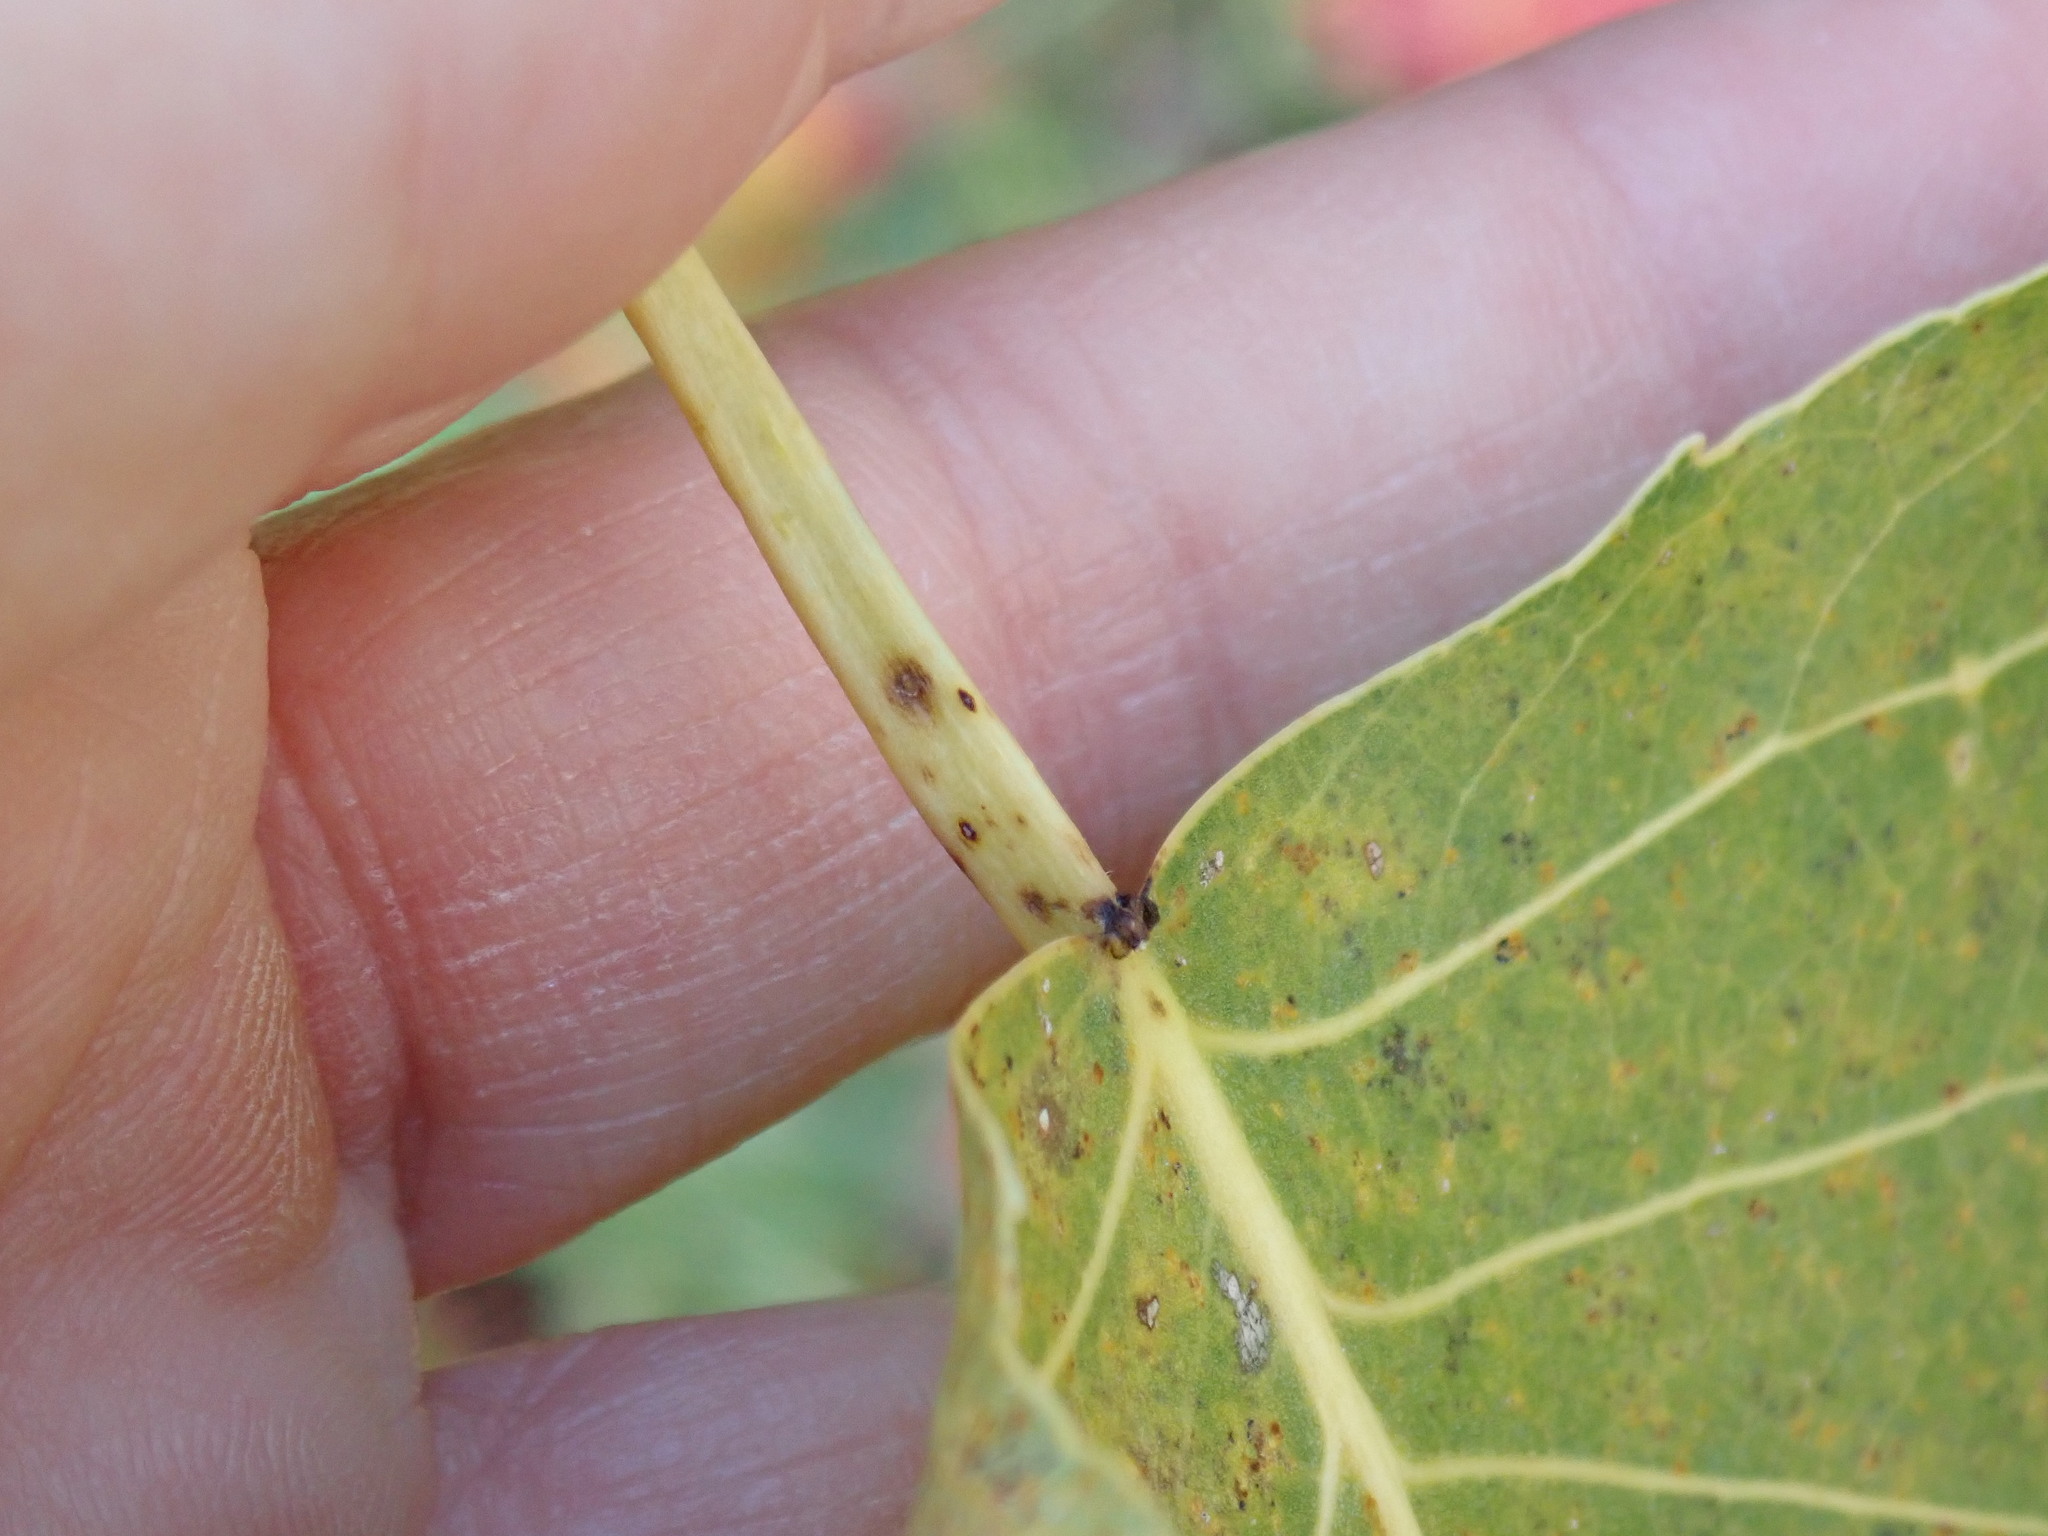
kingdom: Plantae
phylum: Tracheophyta
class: Magnoliopsida
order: Malpighiales
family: Salicaceae
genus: Populus
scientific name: Populus deltoides
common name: Eastern cottonwood
